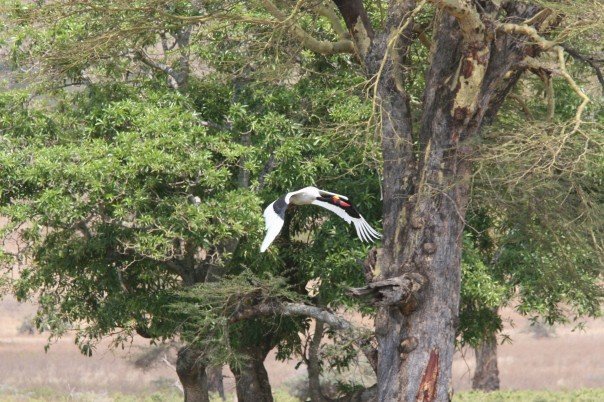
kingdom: Animalia
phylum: Chordata
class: Aves
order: Ciconiiformes
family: Ciconiidae
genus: Ephippiorhynchus
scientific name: Ephippiorhynchus senegalensis
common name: Saddle-billed stork
